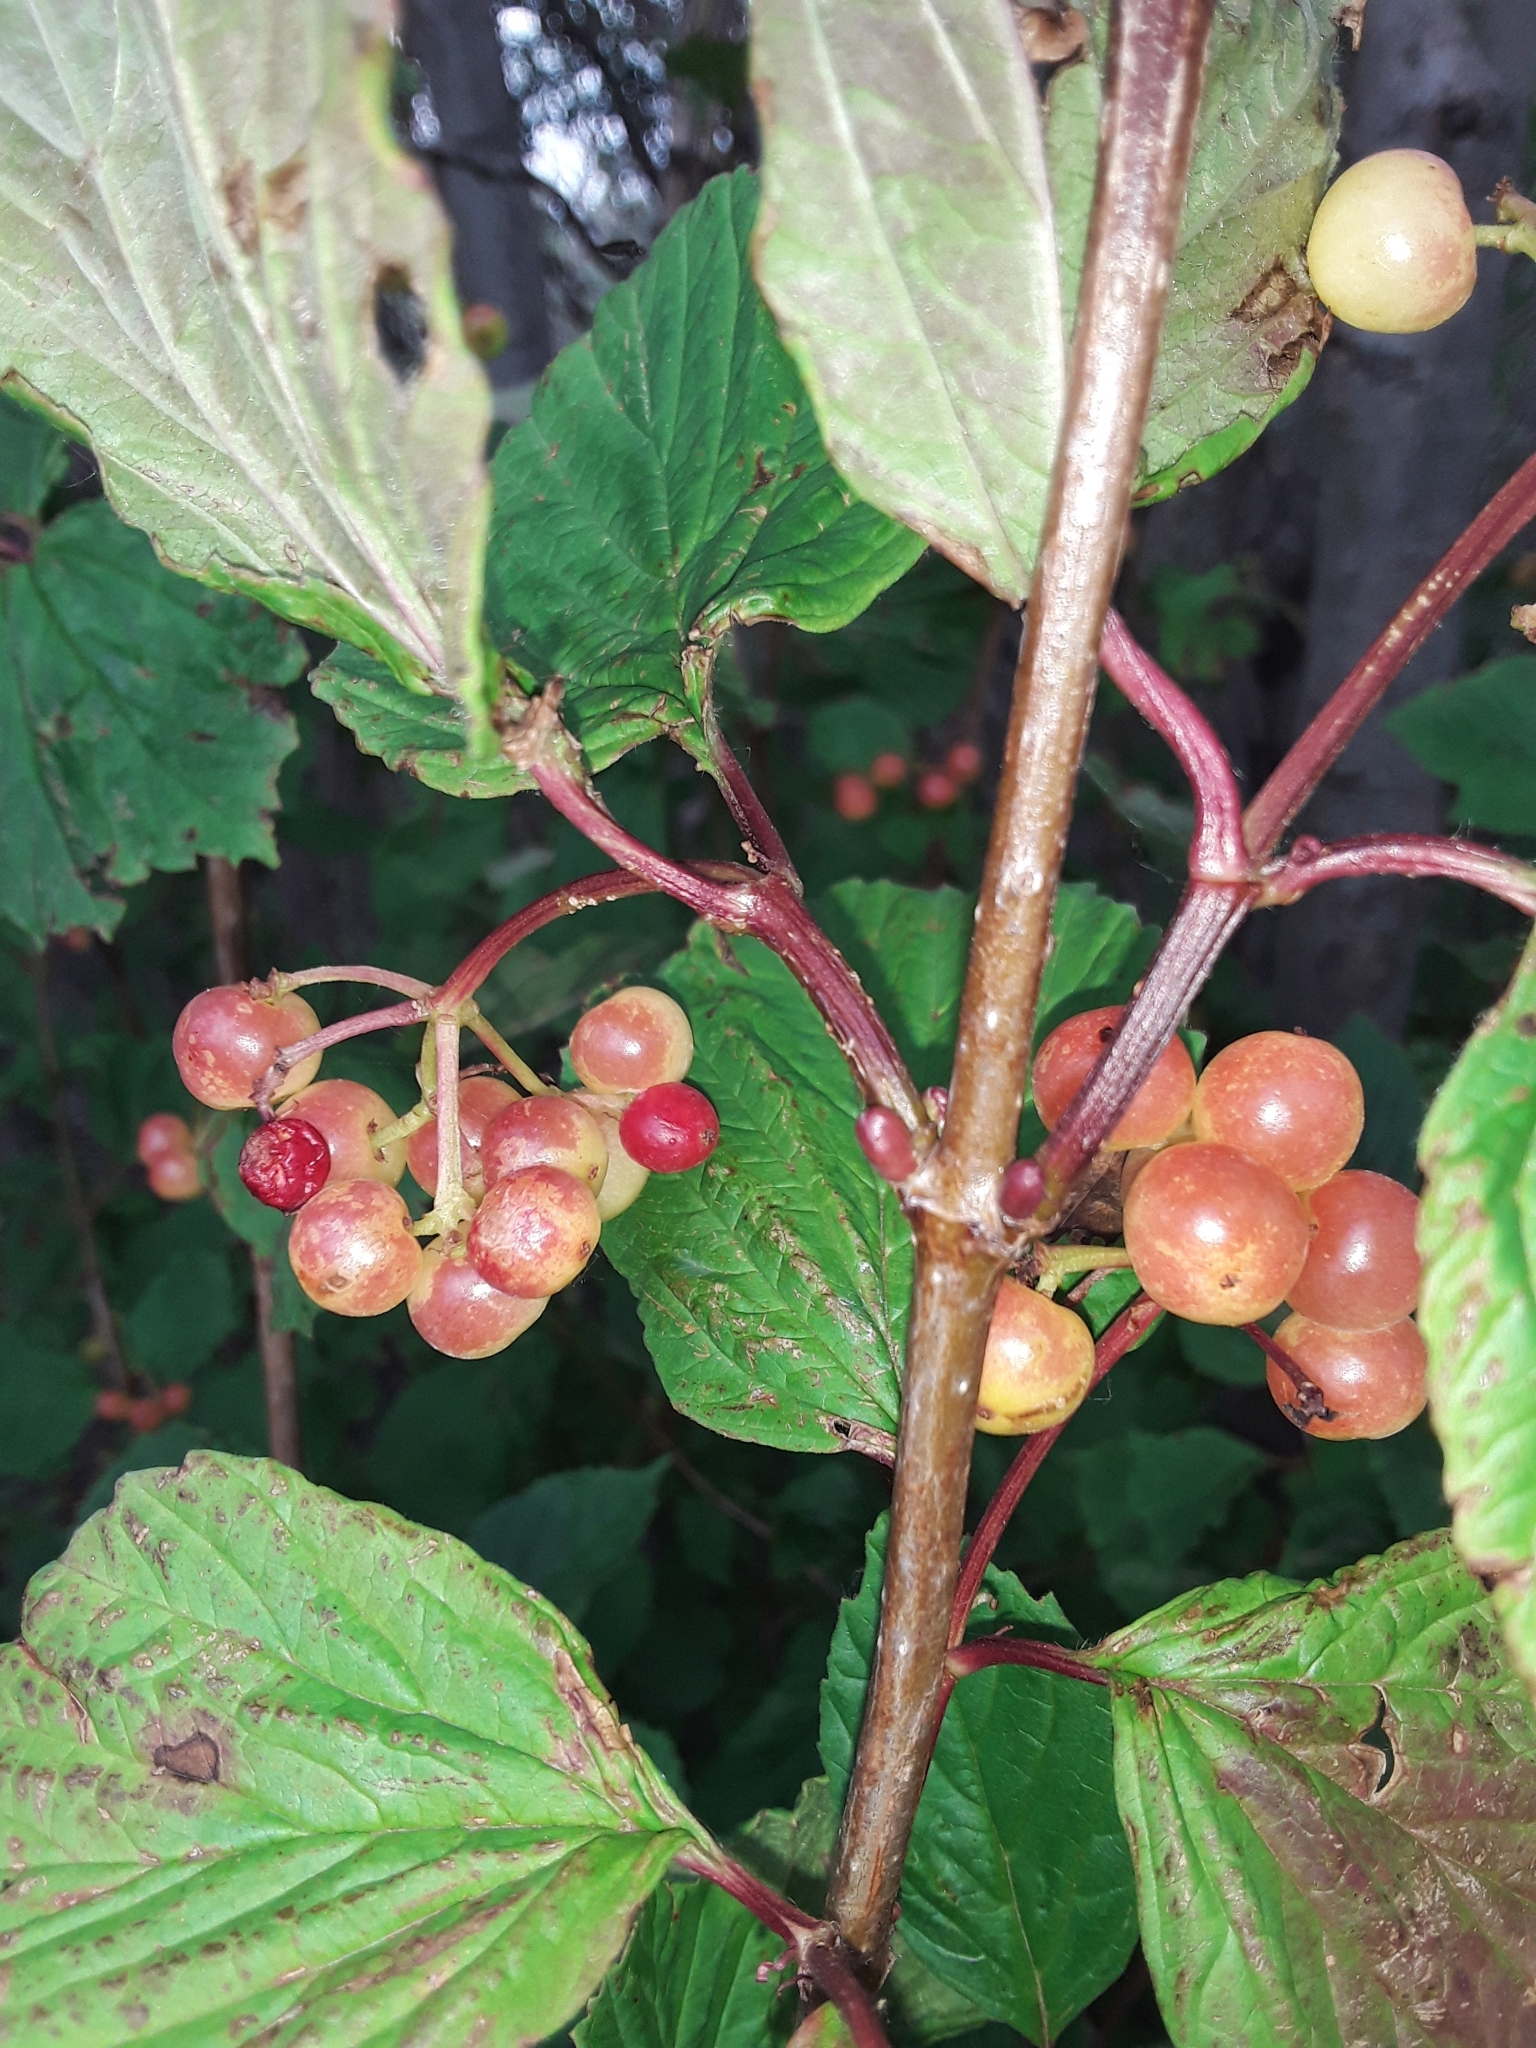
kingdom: Plantae
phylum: Tracheophyta
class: Magnoliopsida
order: Dipsacales
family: Viburnaceae
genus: Viburnum
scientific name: Viburnum edule
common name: Mooseberry
